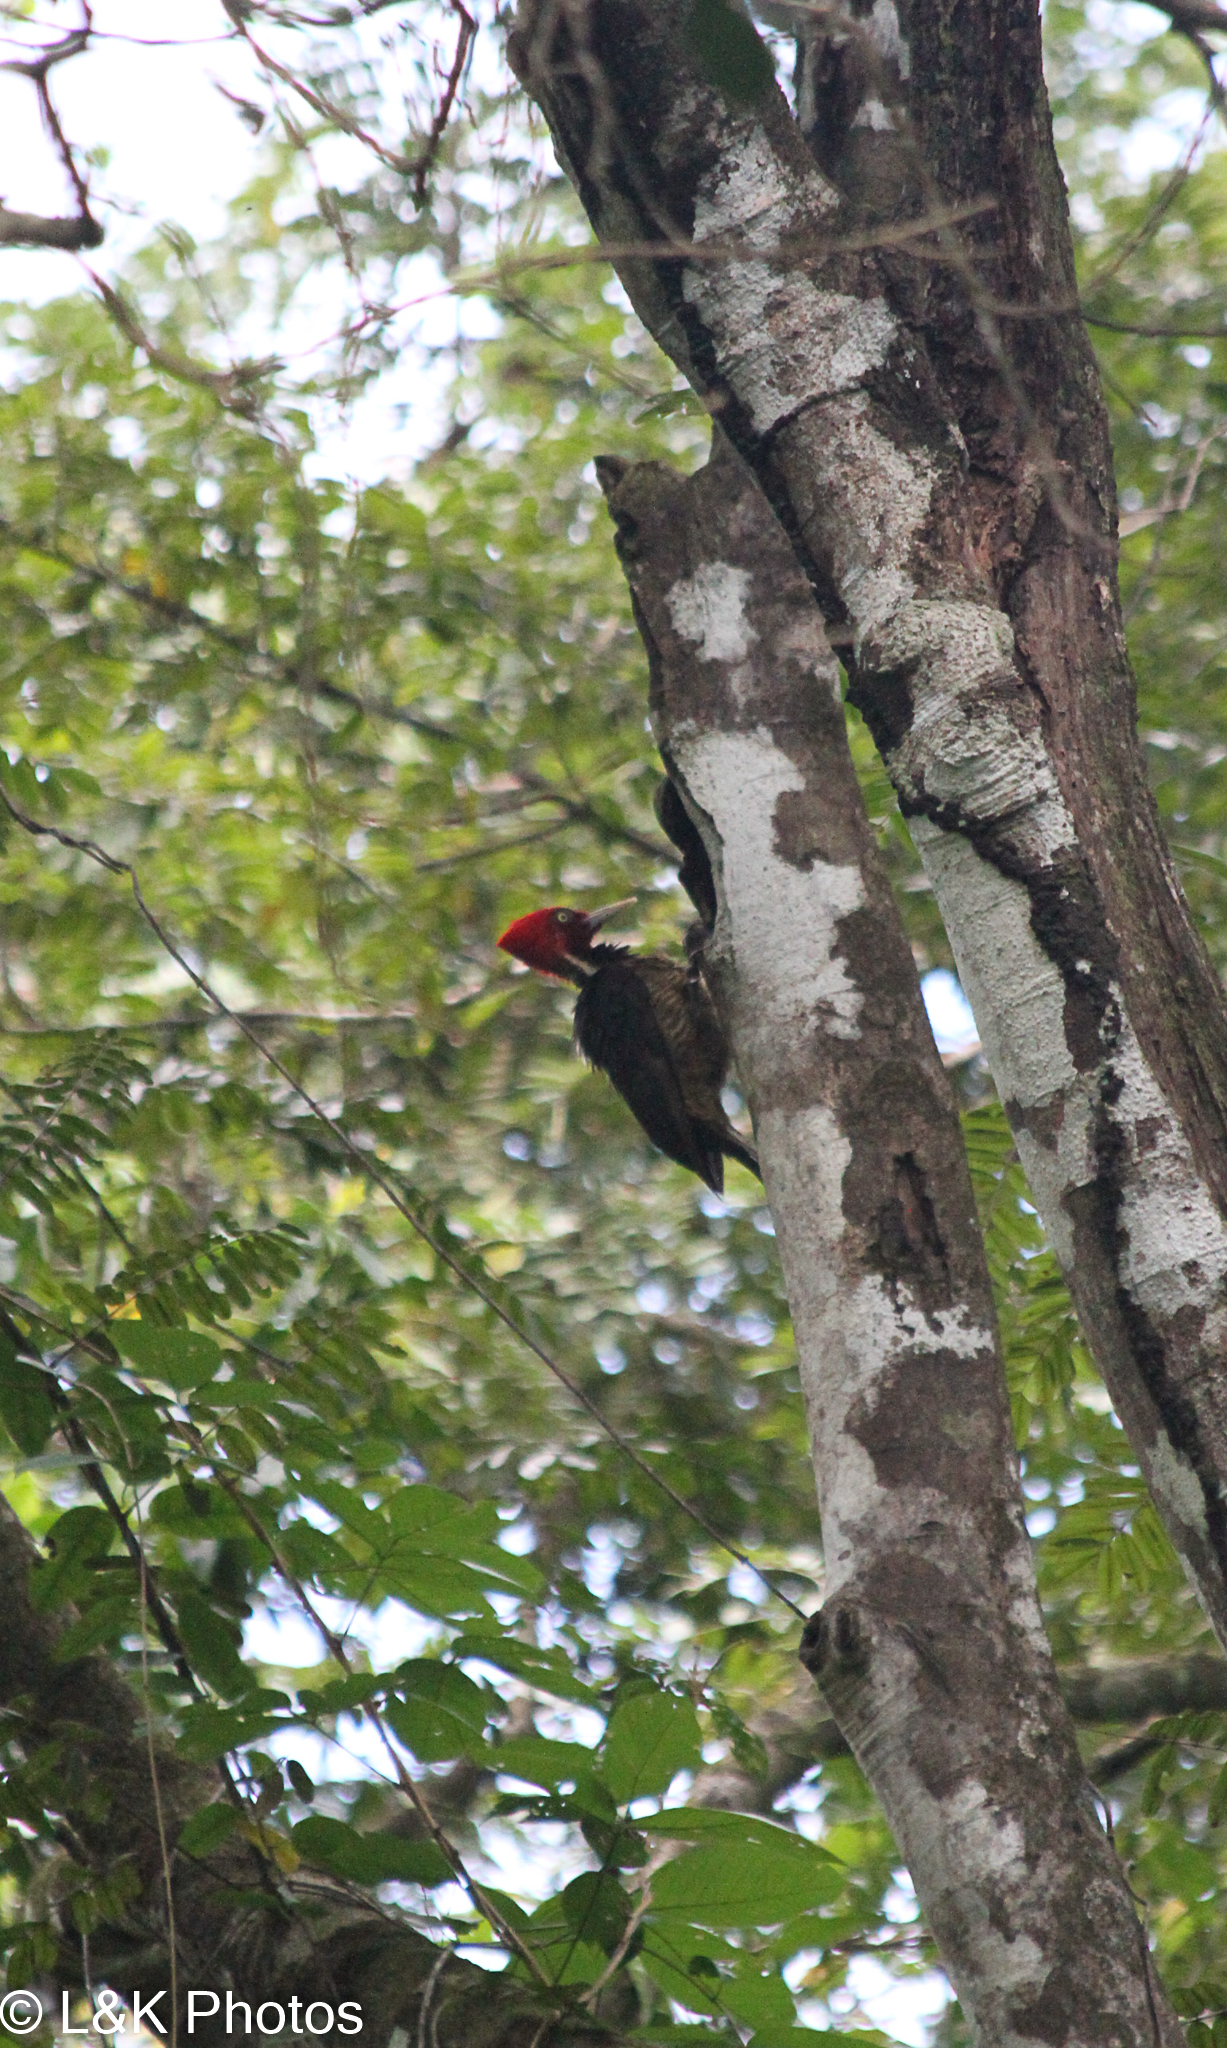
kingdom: Animalia
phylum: Chordata
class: Aves
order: Piciformes
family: Picidae
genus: Campephilus
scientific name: Campephilus guatemalensis
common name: Pale-billed woodpecker
